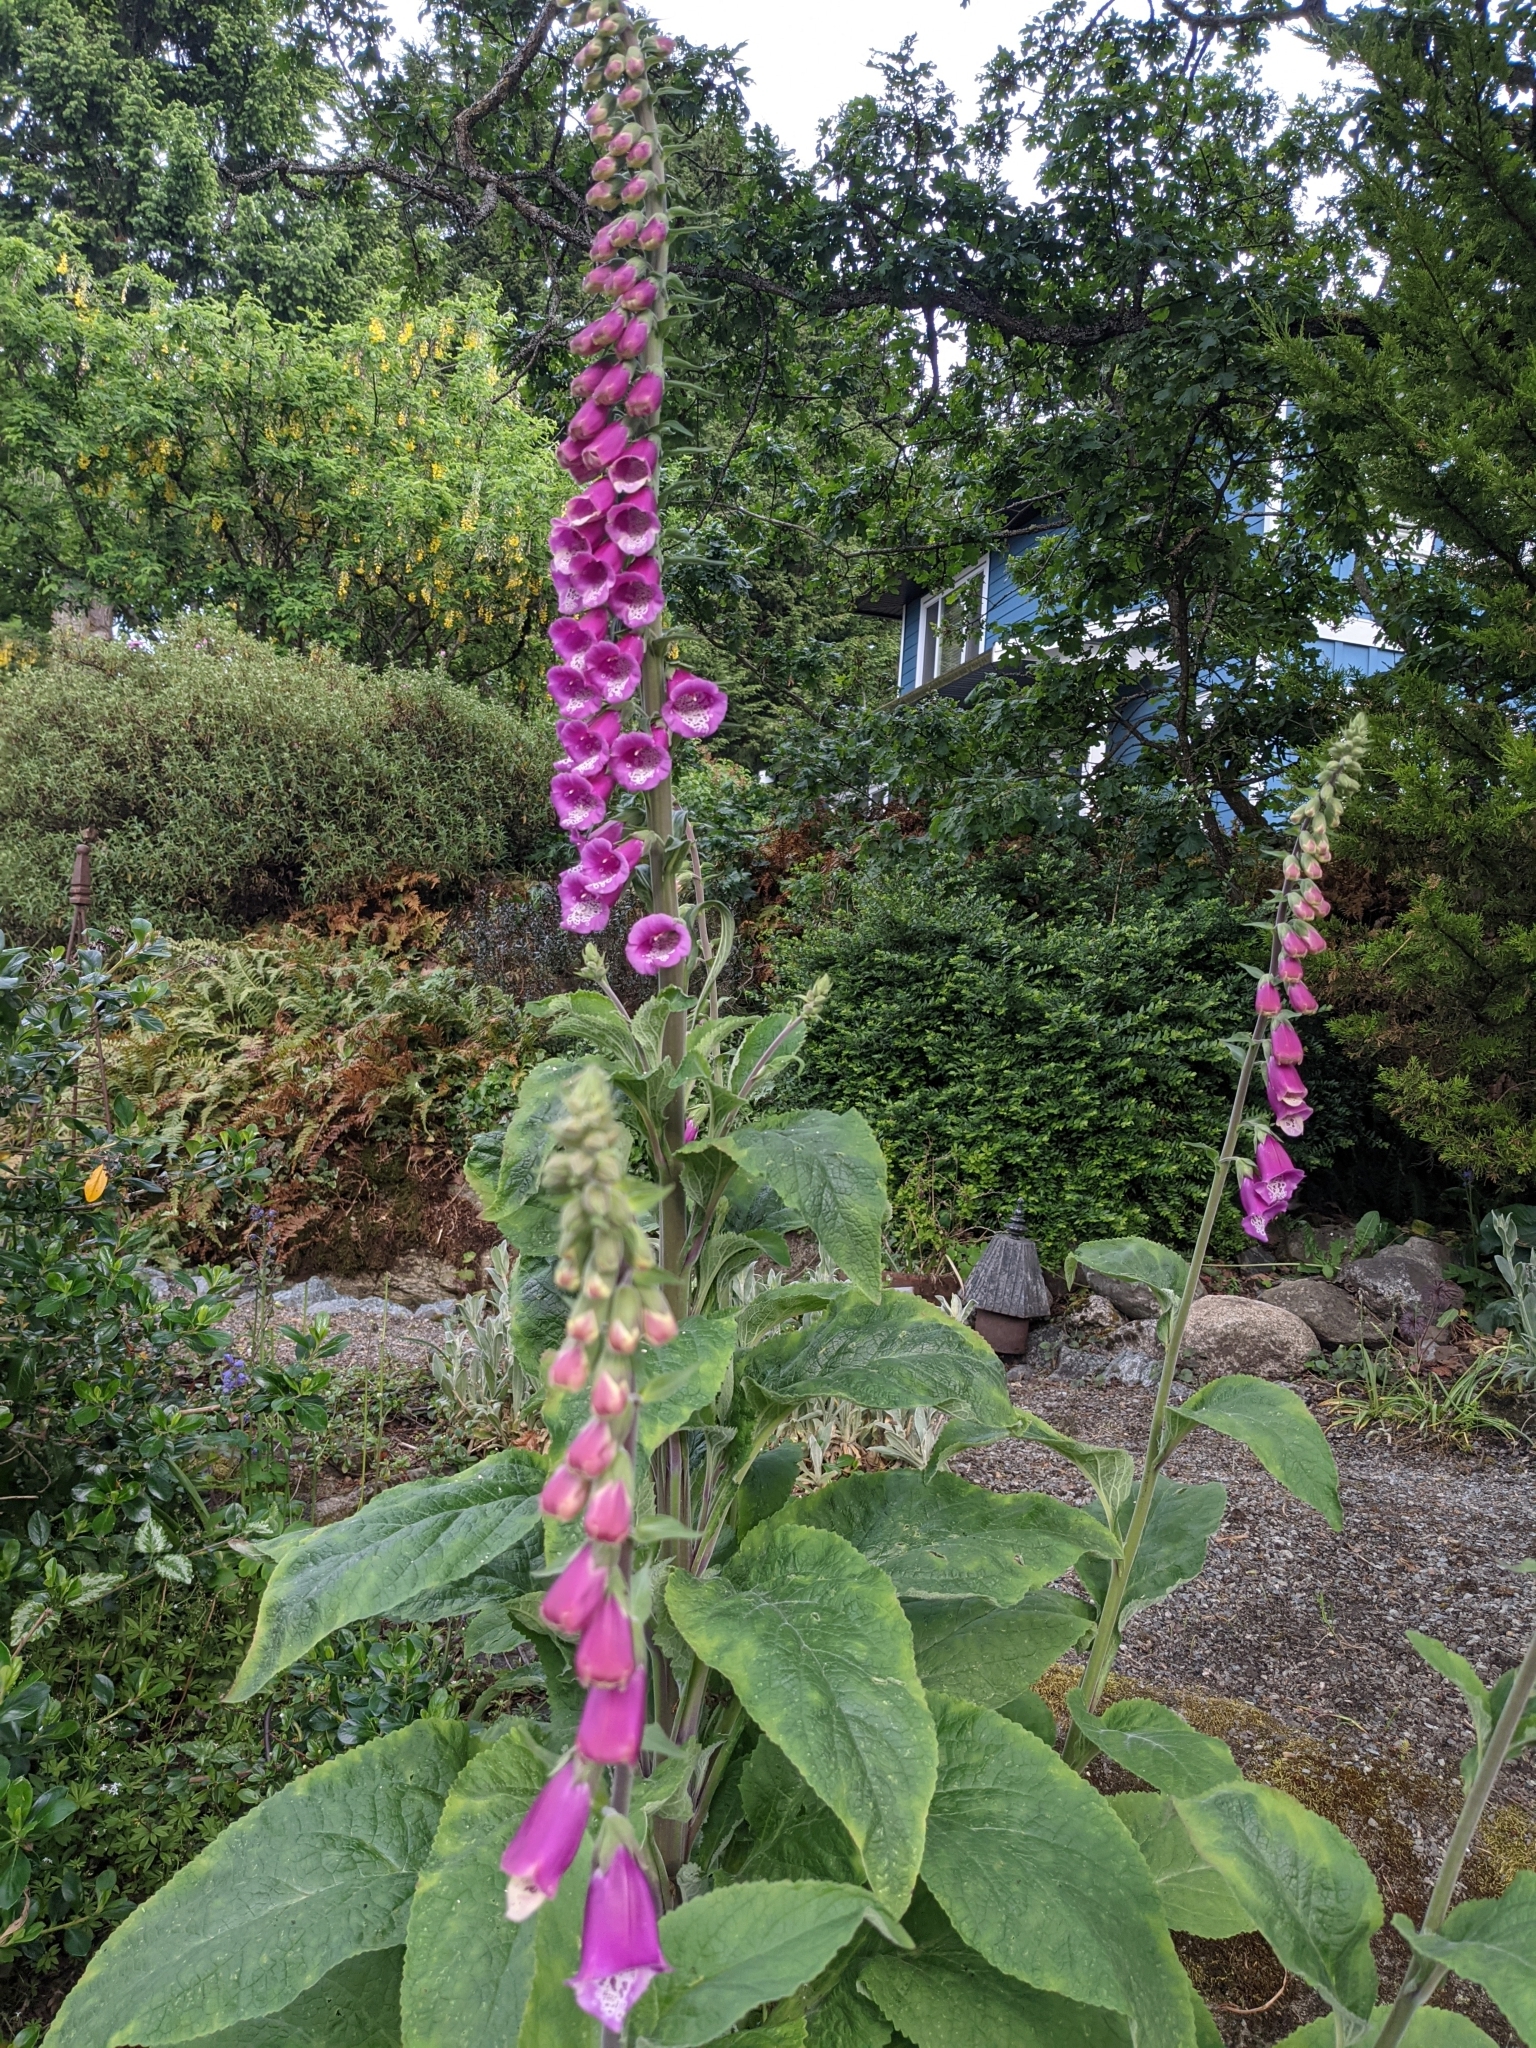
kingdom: Plantae
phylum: Tracheophyta
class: Magnoliopsida
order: Lamiales
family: Plantaginaceae
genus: Digitalis
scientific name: Digitalis purpurea
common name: Foxglove
